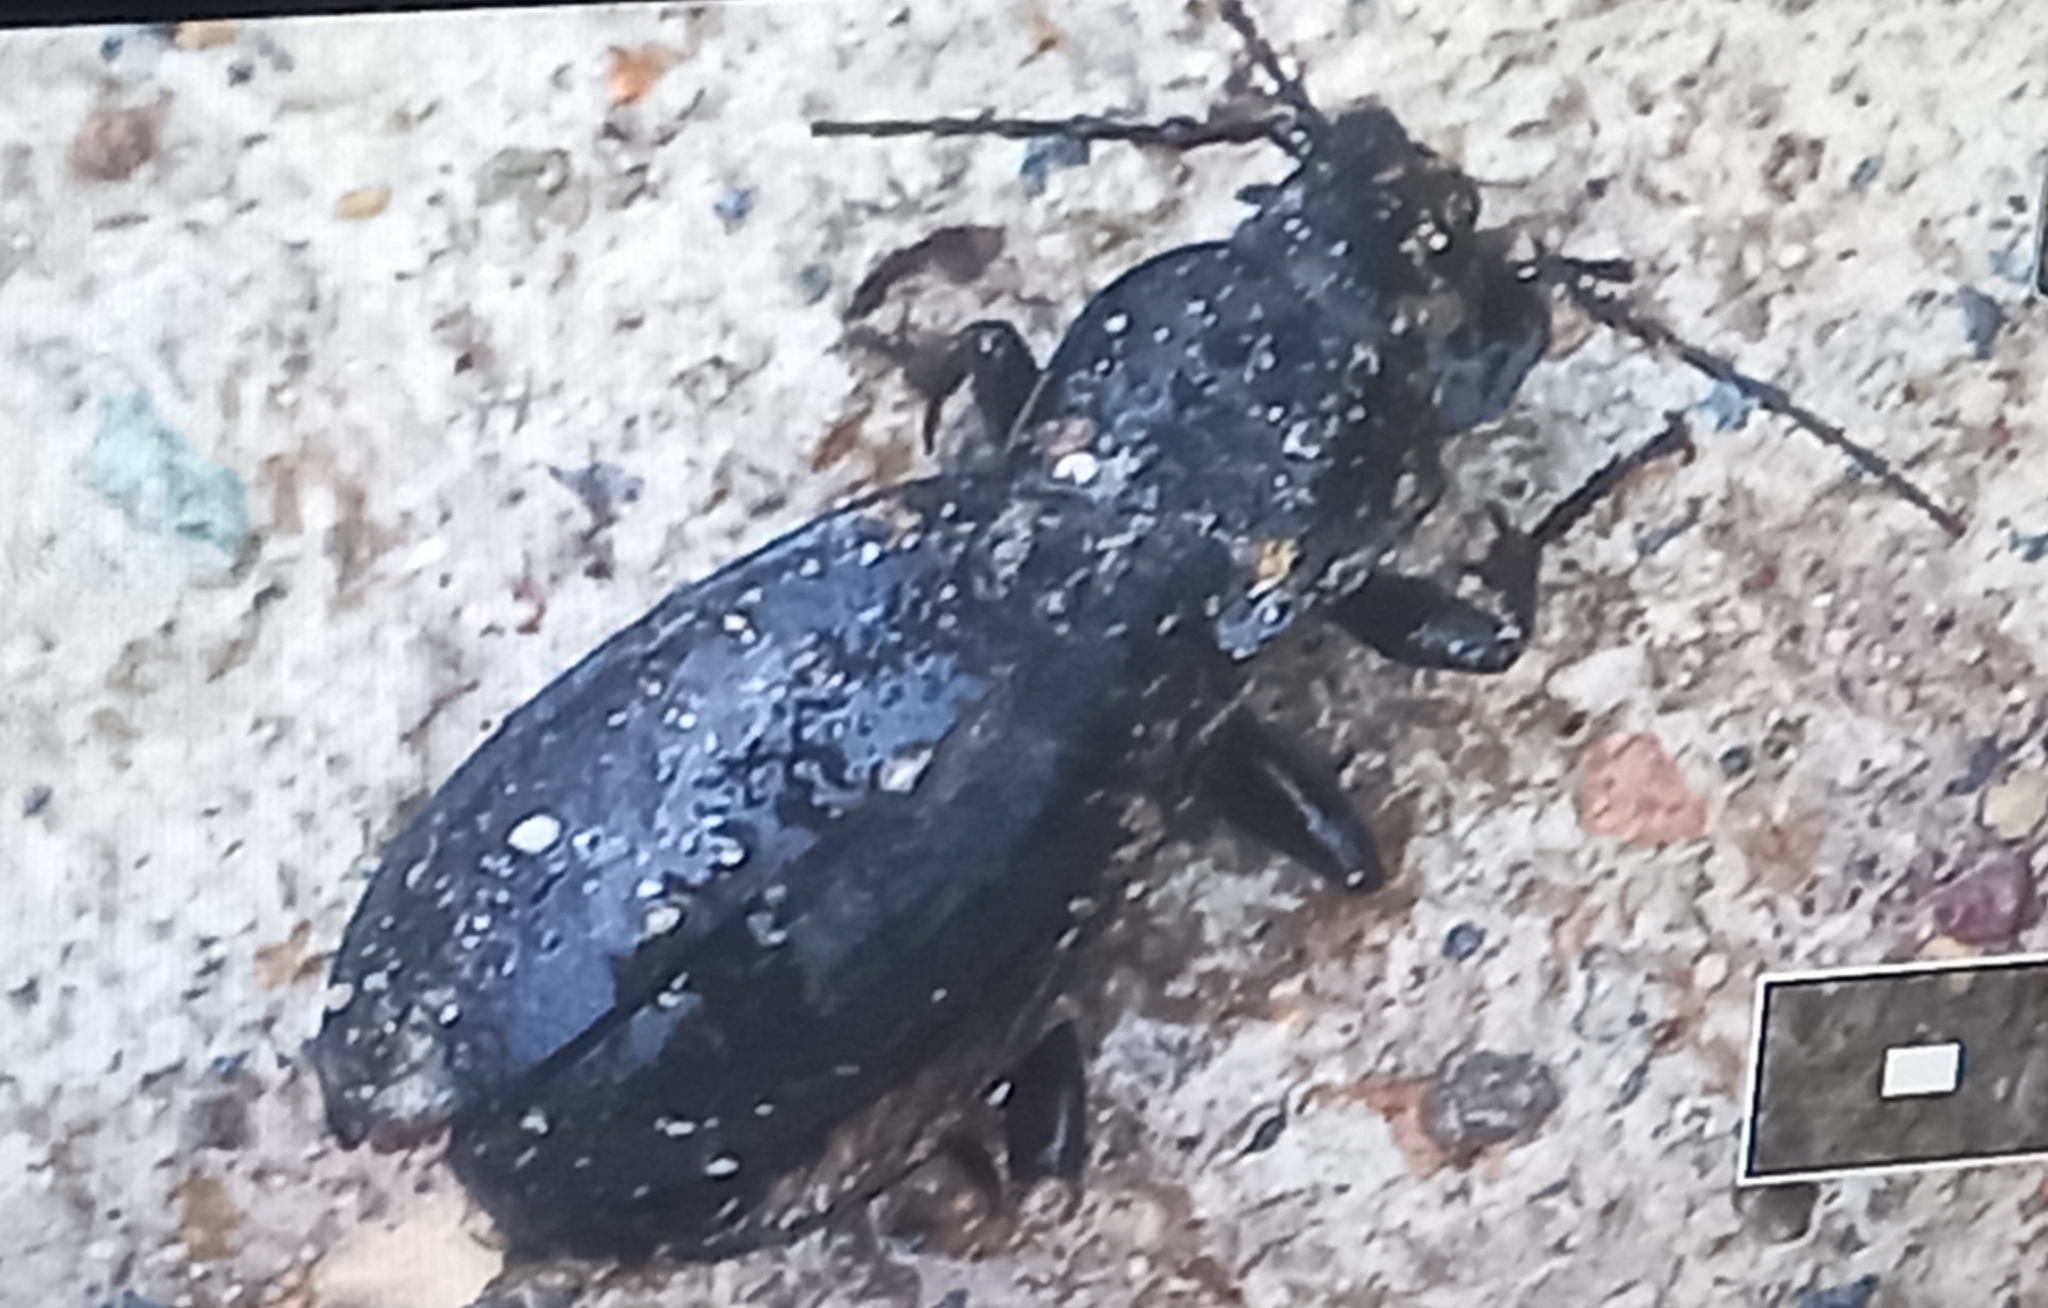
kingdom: Animalia
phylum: Arthropoda
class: Insecta
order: Coleoptera
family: Carabidae
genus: Carabus
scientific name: Carabus coriaceus
